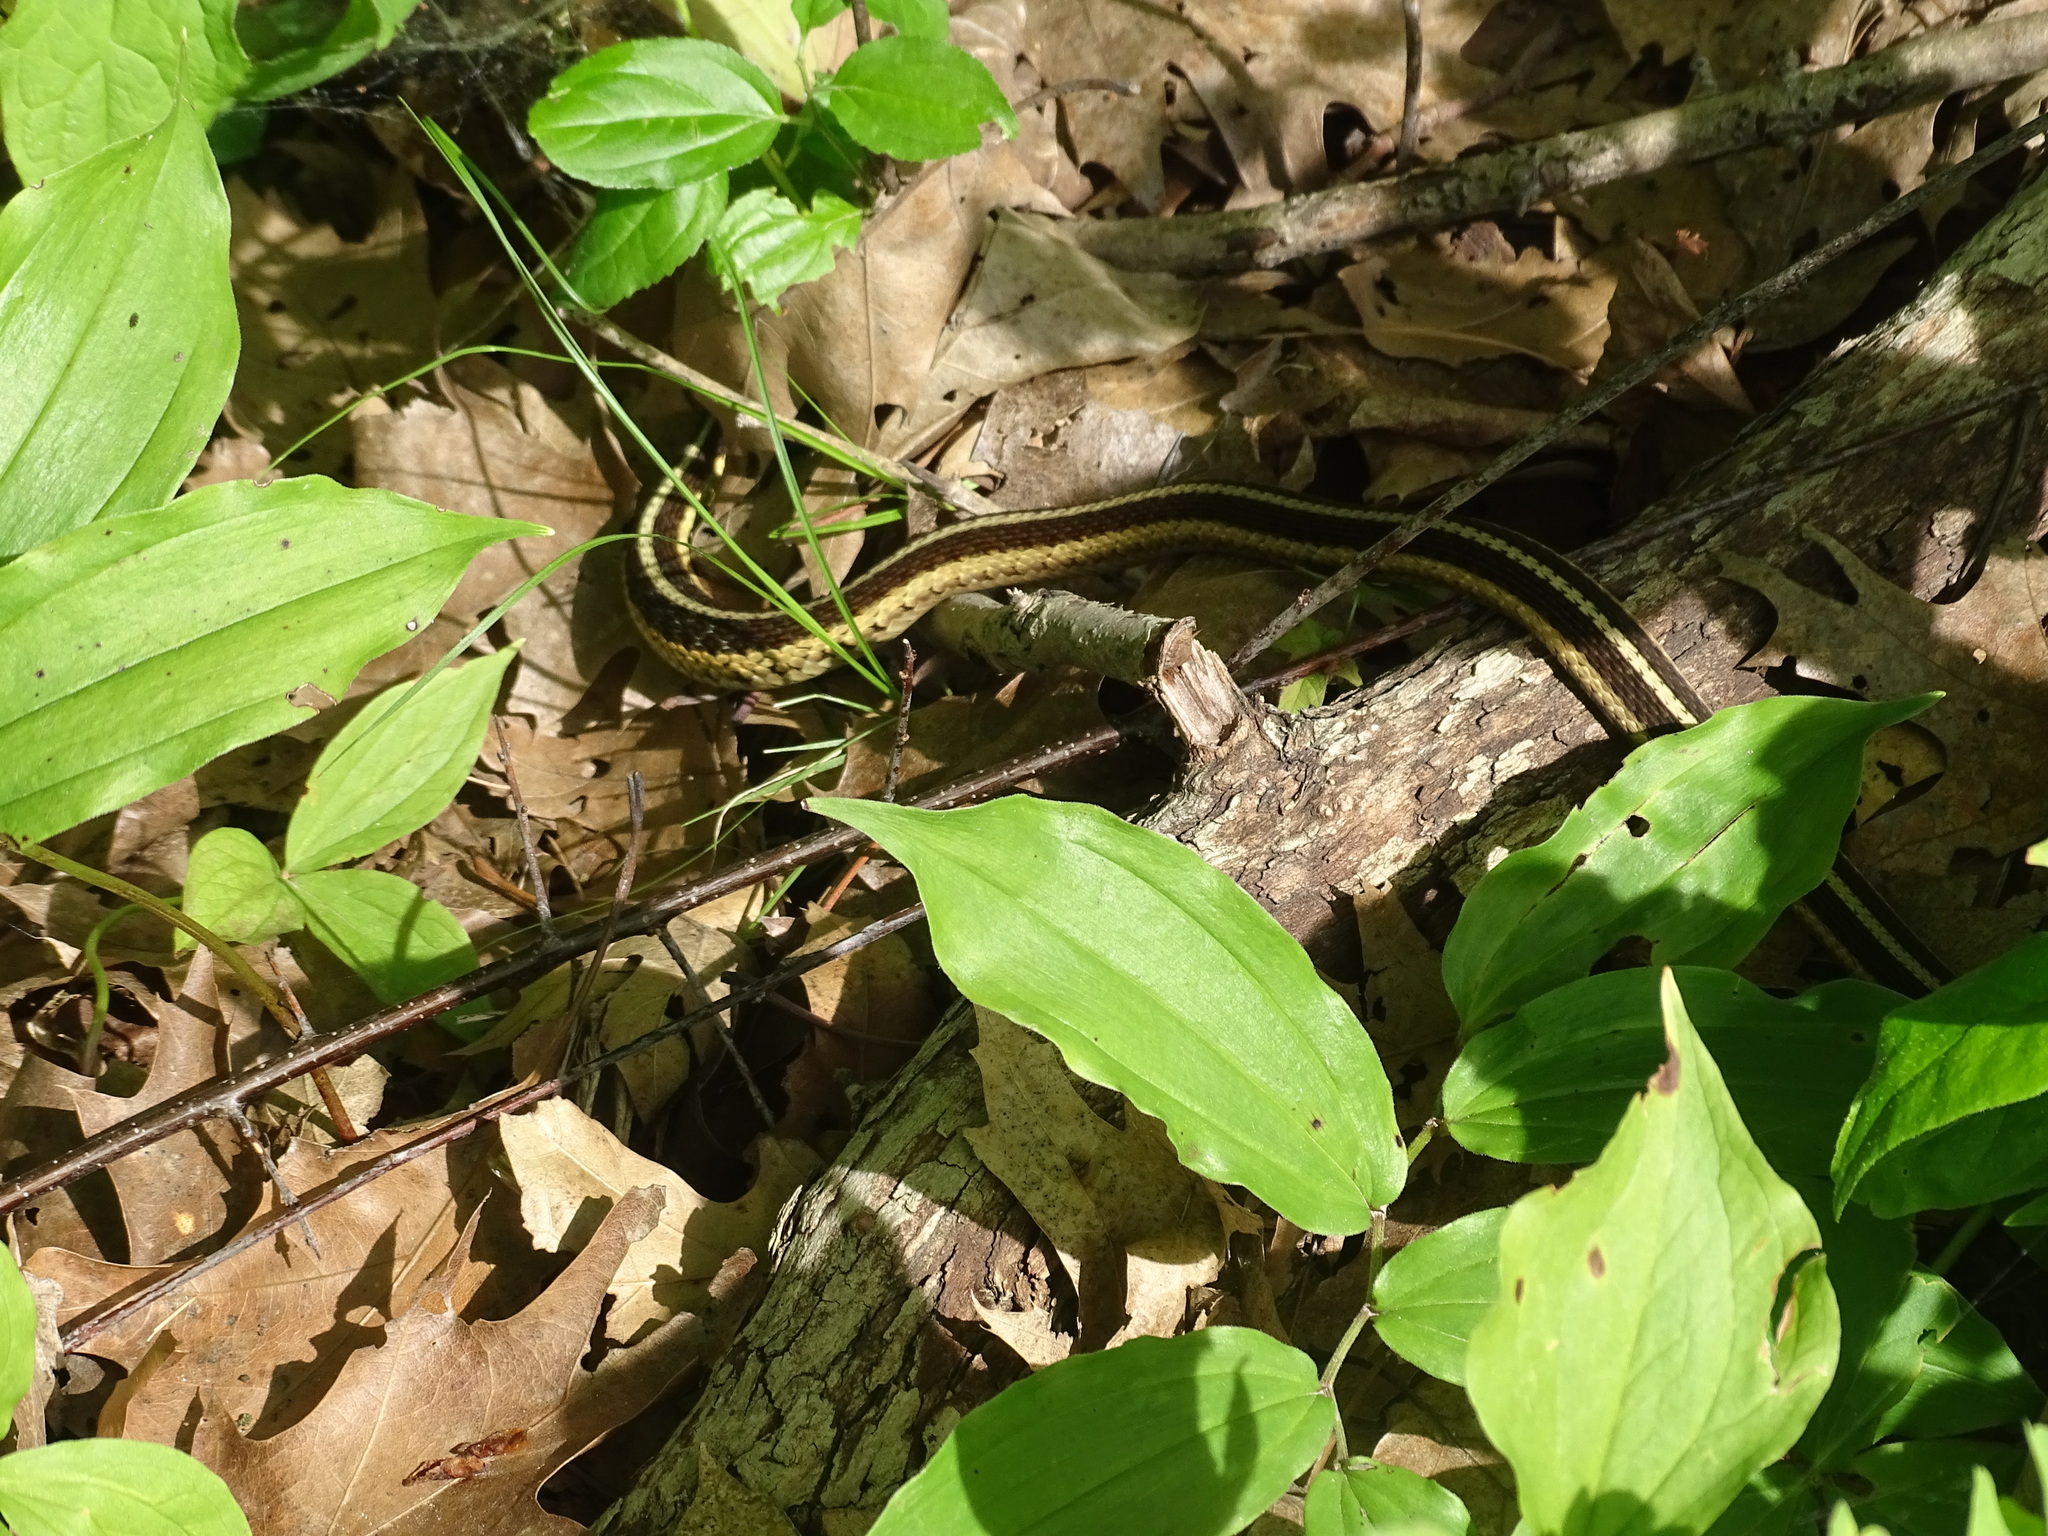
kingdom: Animalia
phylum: Chordata
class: Squamata
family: Colubridae
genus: Thamnophis
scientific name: Thamnophis sirtalis
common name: Common garter snake
